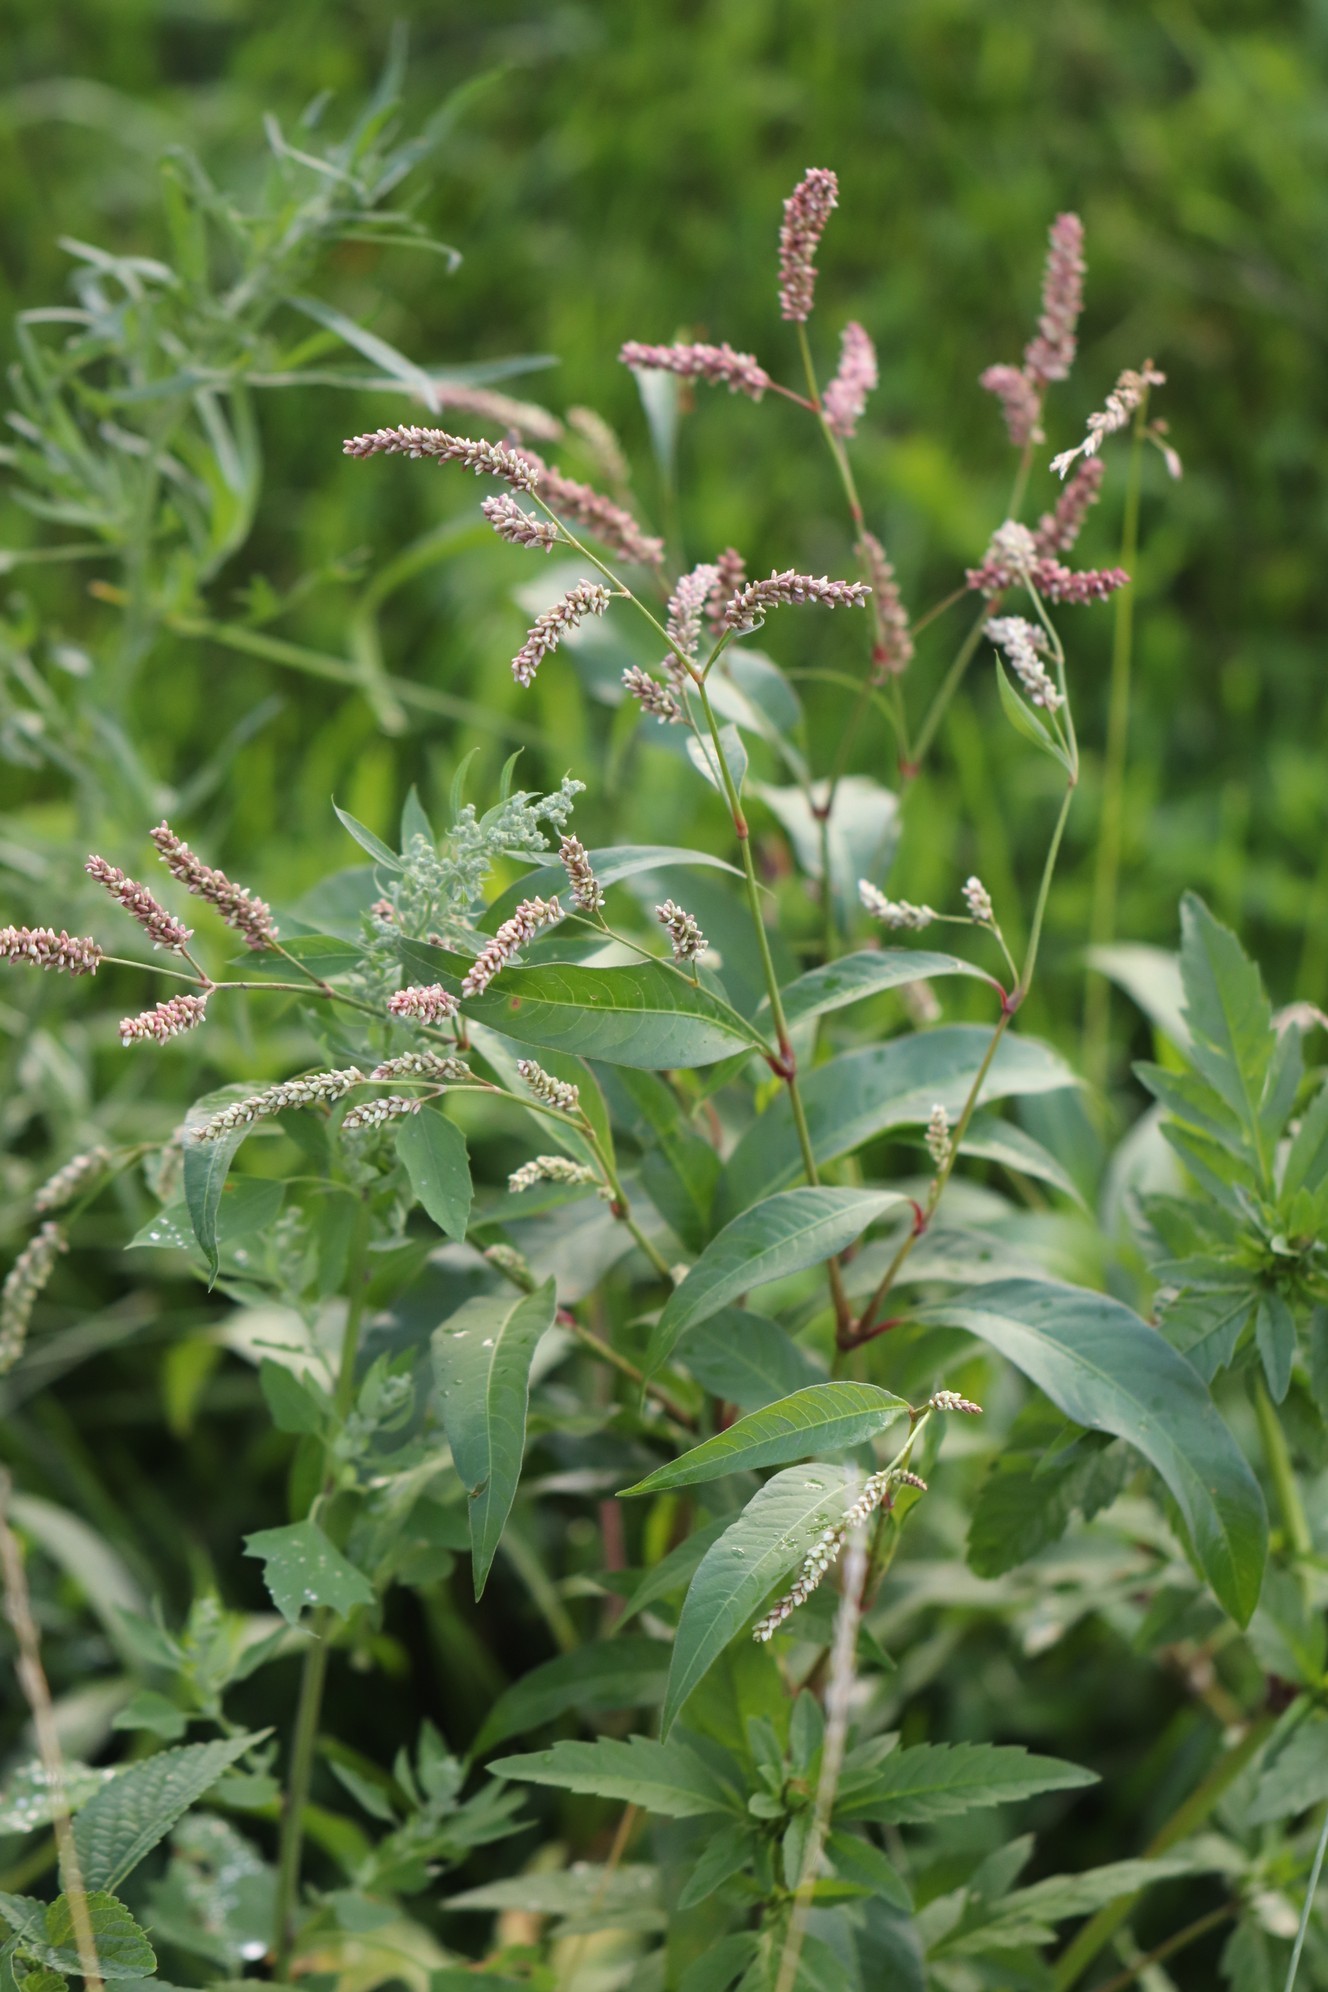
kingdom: Plantae
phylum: Tracheophyta
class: Magnoliopsida
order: Caryophyllales
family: Polygonaceae
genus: Persicaria
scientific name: Persicaria lapathifolia
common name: Curlytop knotweed
